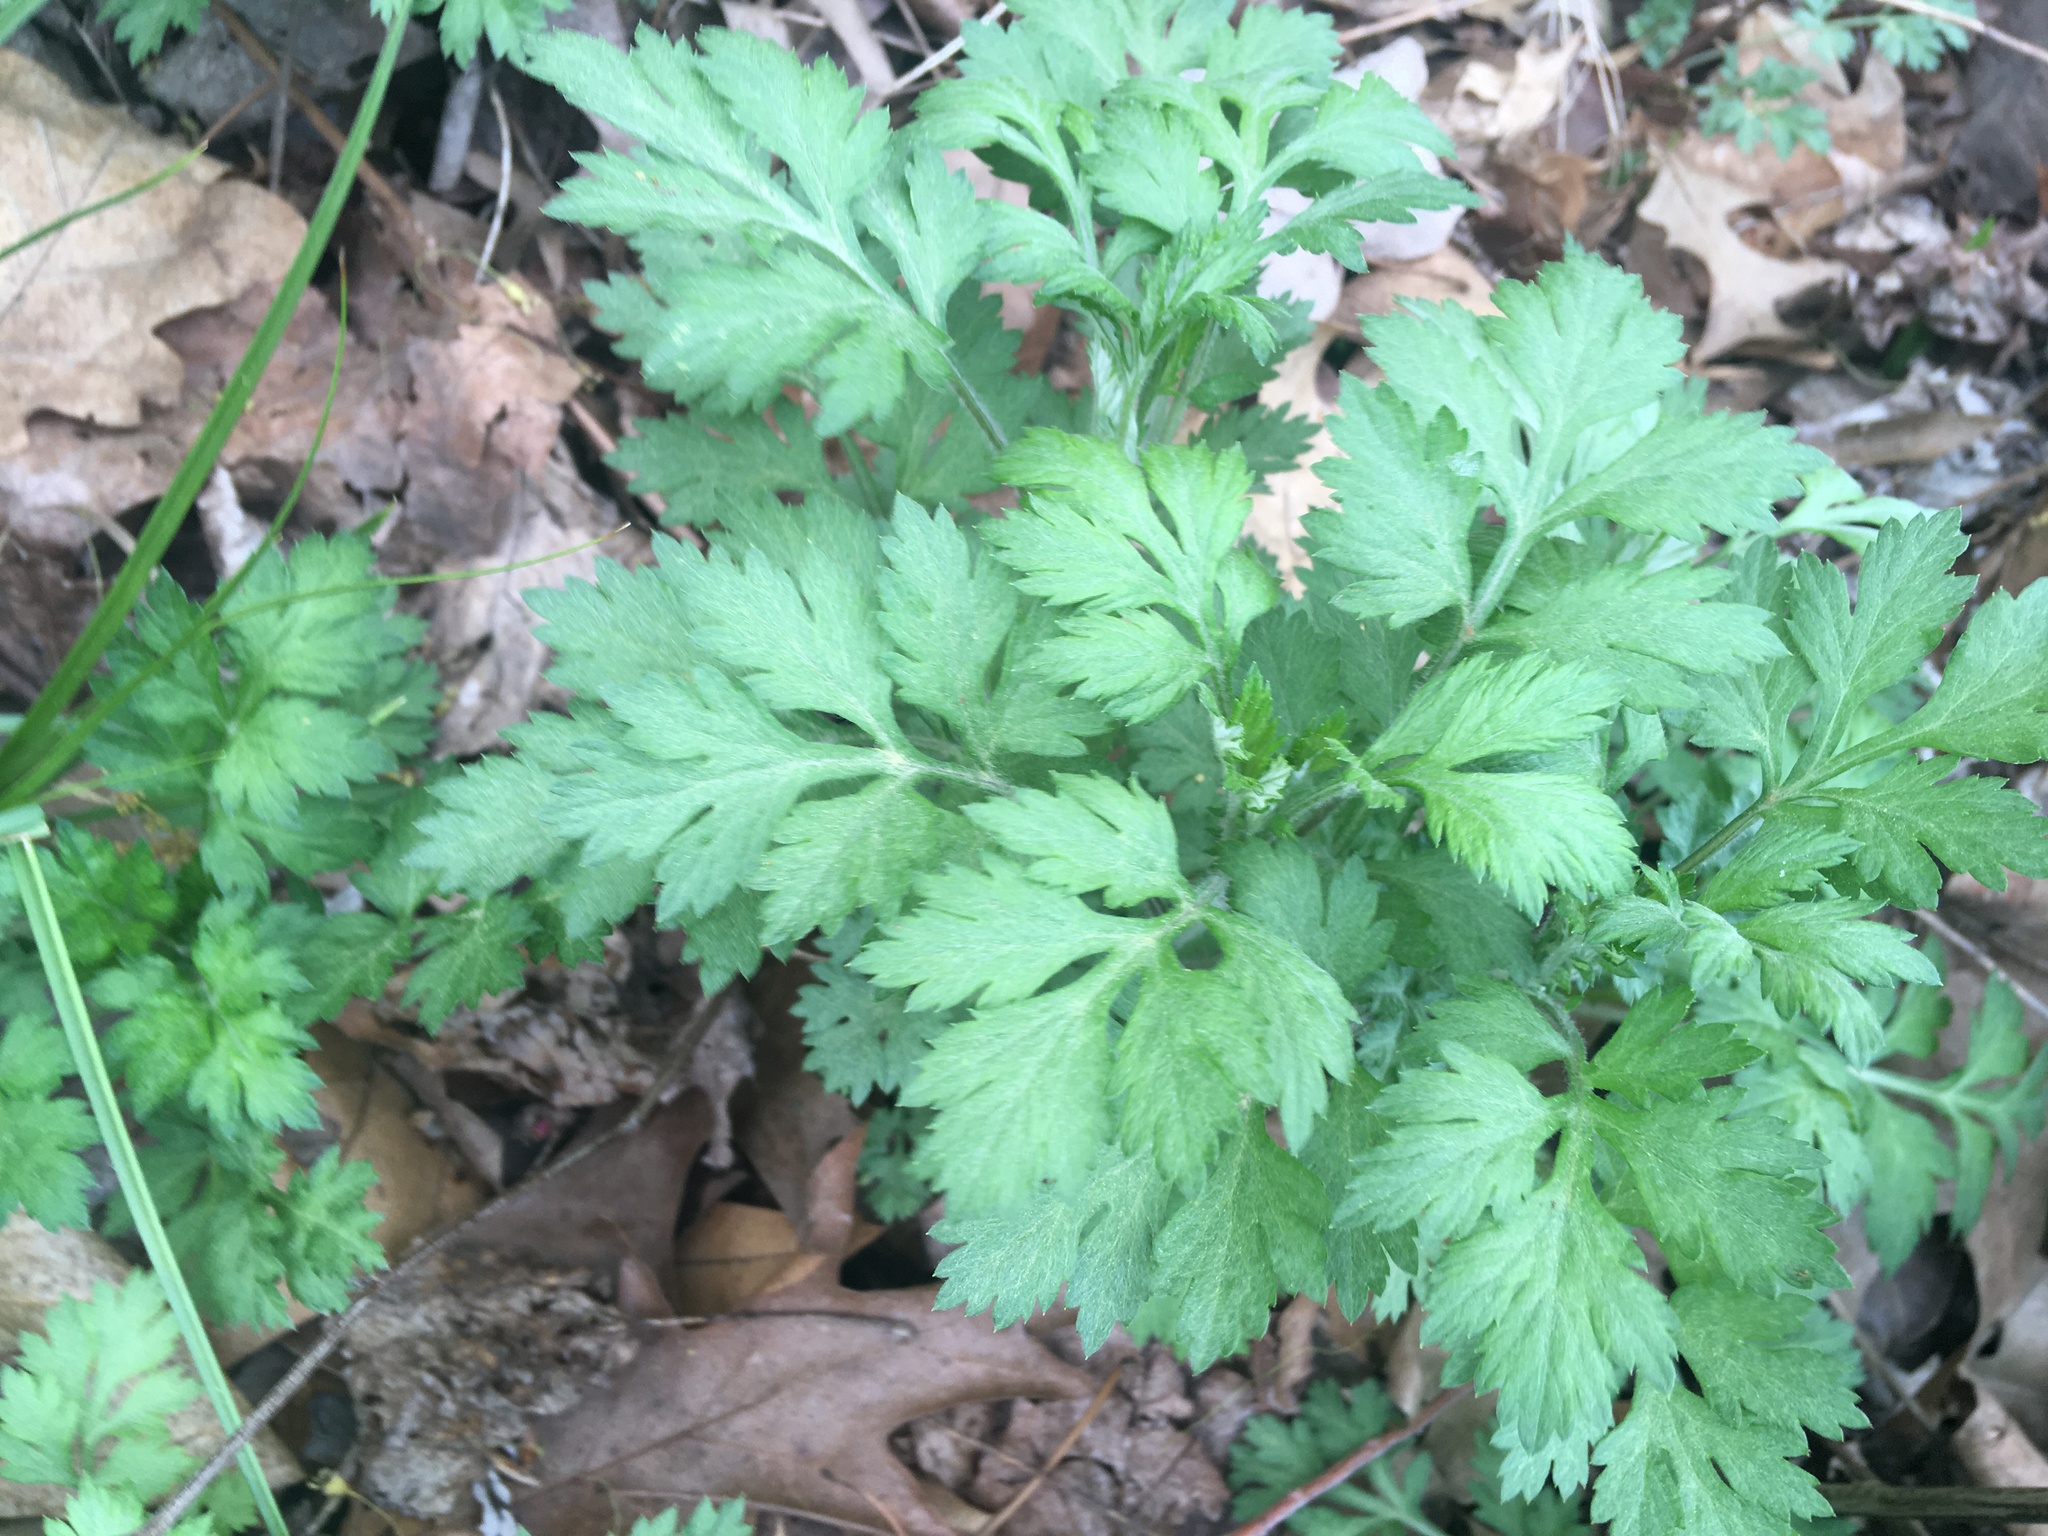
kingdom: Plantae
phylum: Tracheophyta
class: Magnoliopsida
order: Asterales
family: Asteraceae
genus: Artemisia
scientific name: Artemisia vulgaris
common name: Mugwort
